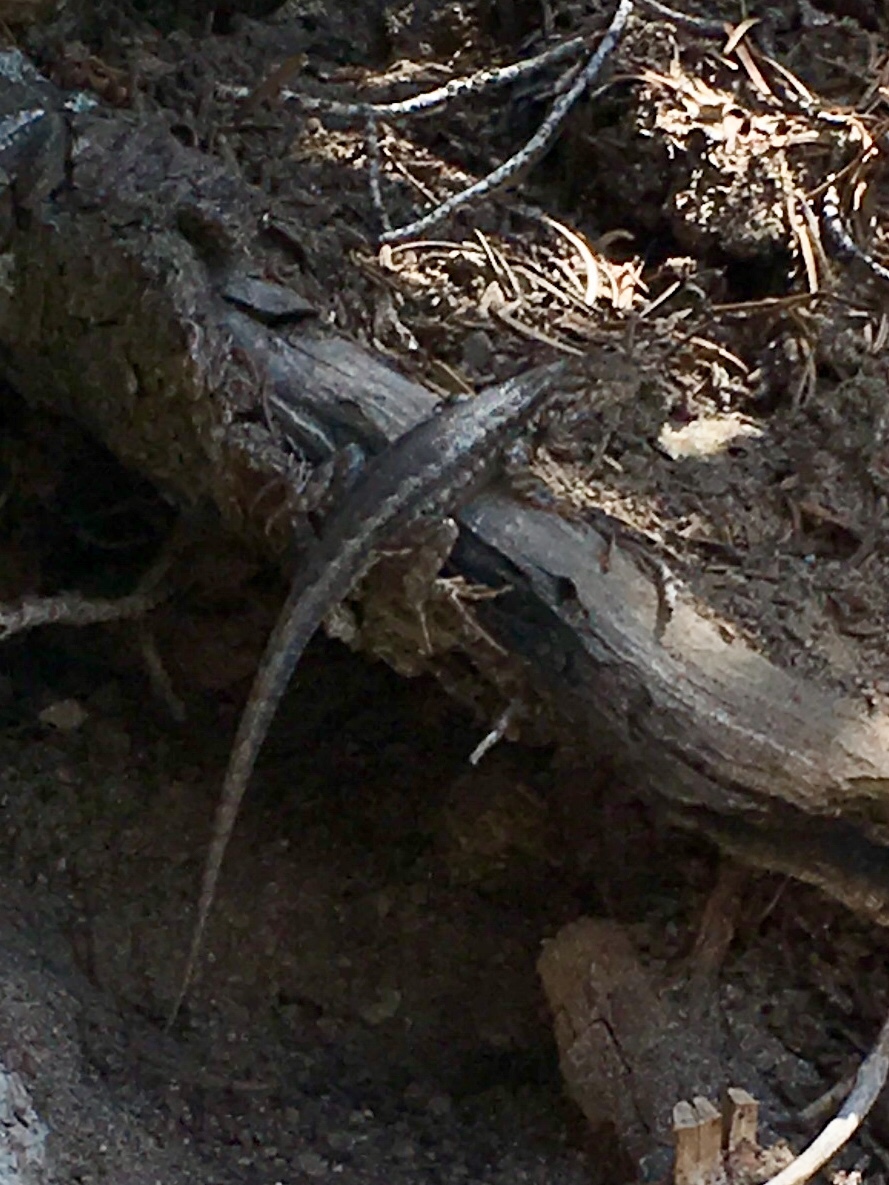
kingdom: Animalia
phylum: Chordata
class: Squamata
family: Phrynosomatidae
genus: Sceloporus
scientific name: Sceloporus graciosus
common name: Sagebrush lizard
